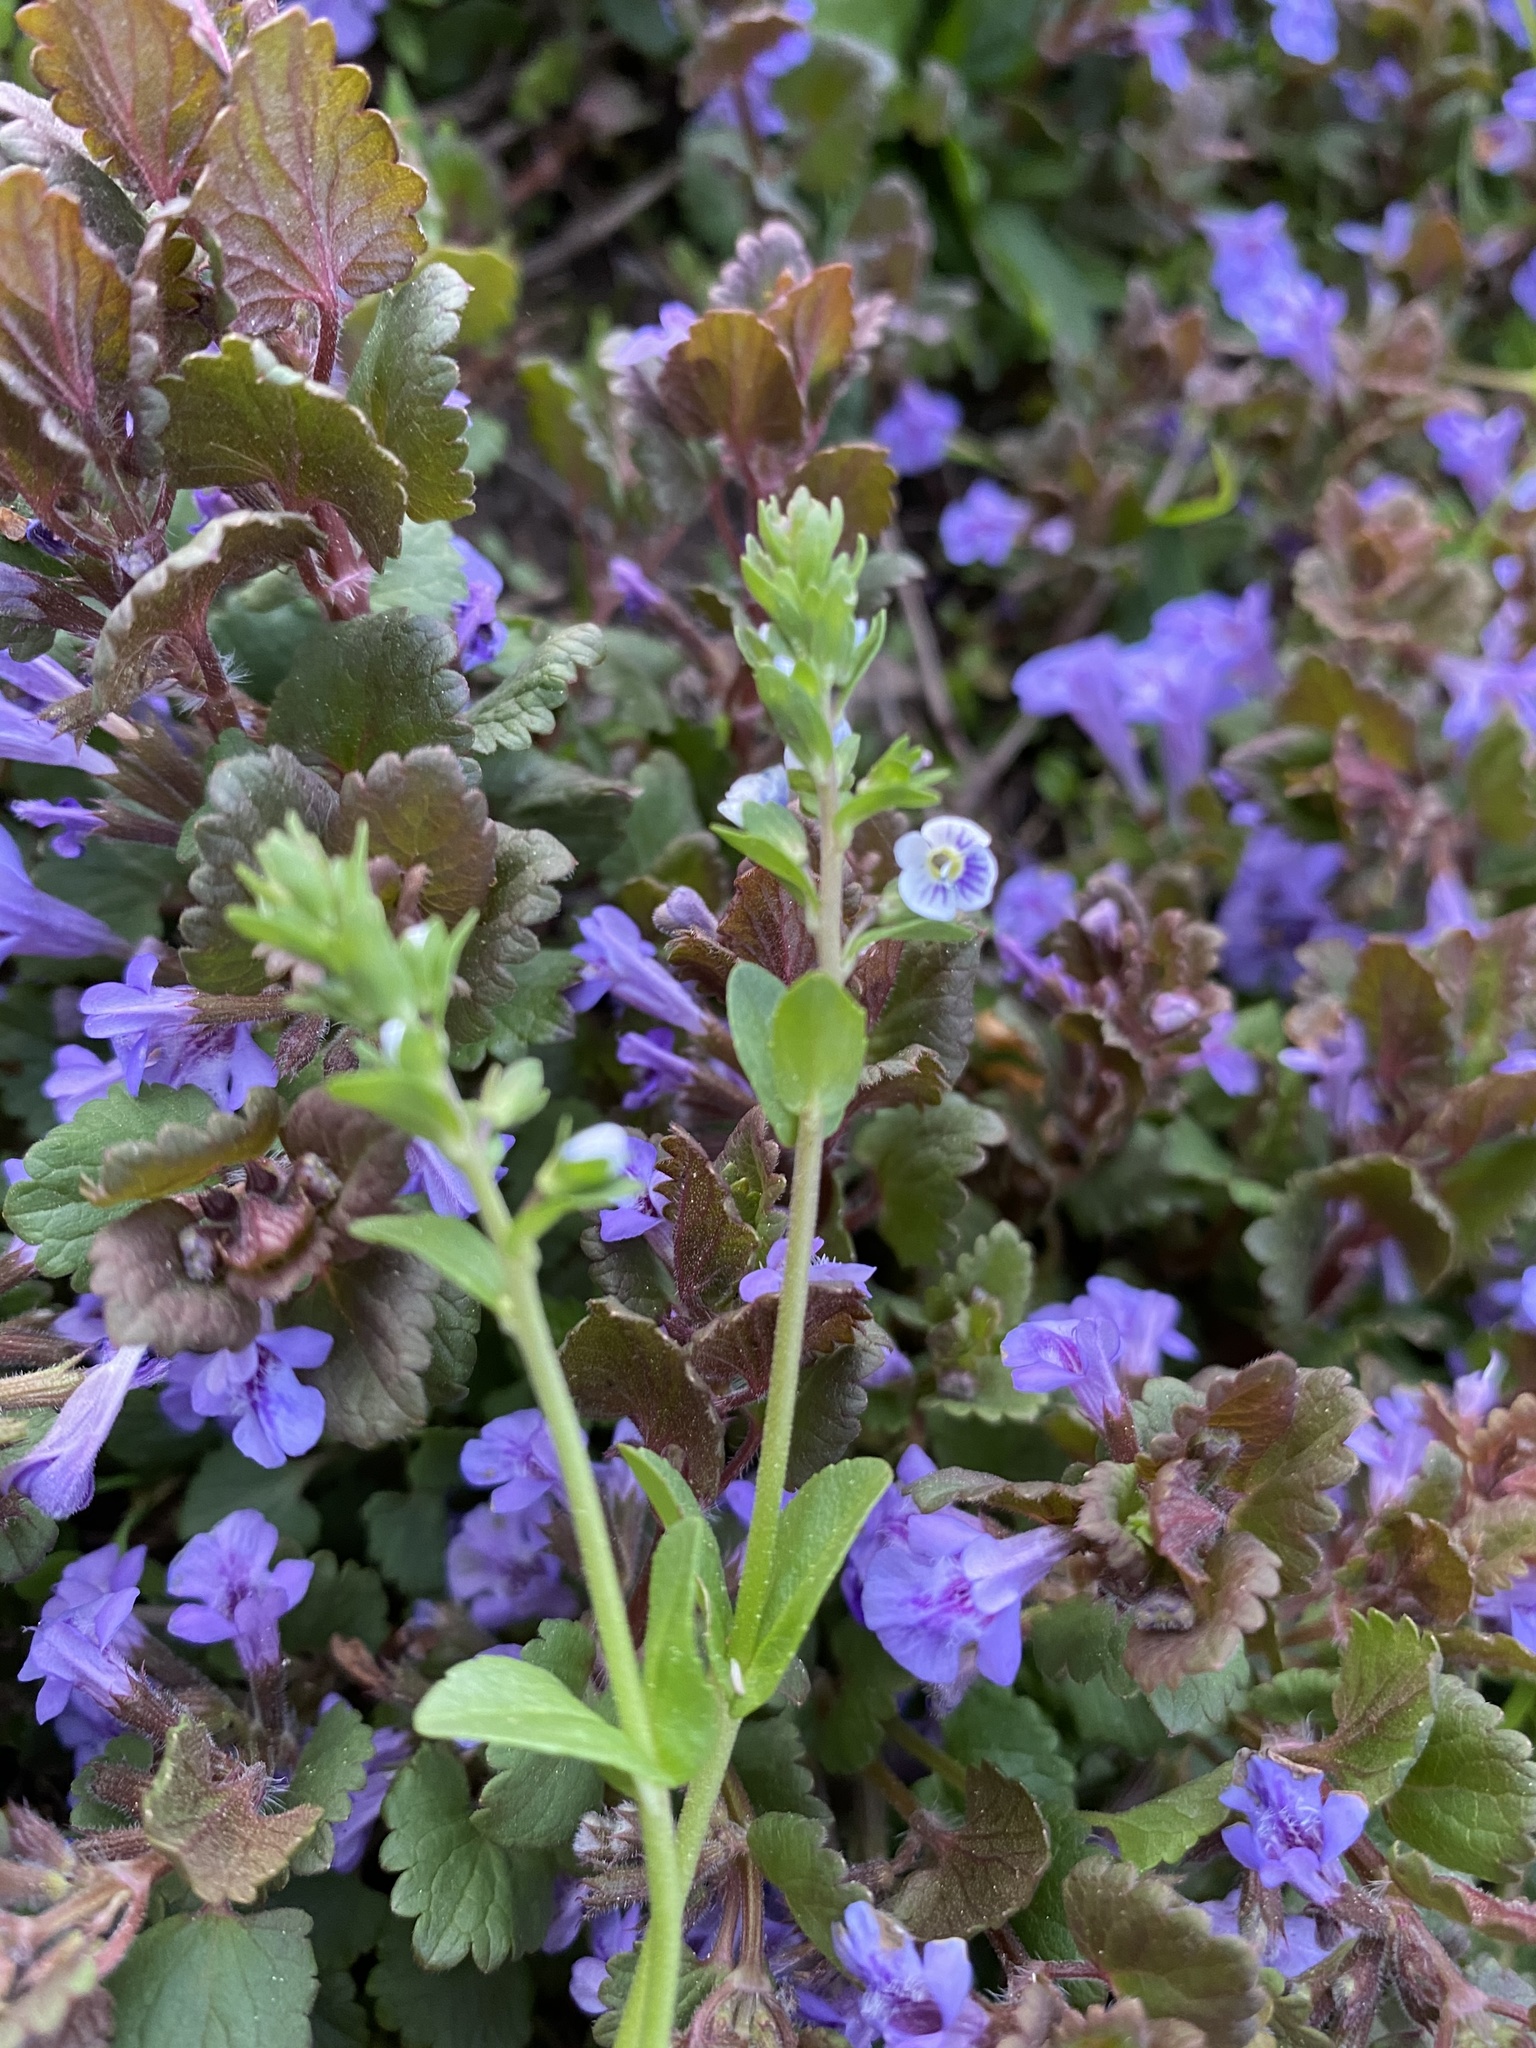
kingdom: Plantae
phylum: Tracheophyta
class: Magnoliopsida
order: Lamiales
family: Plantaginaceae
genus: Veronica
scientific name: Veronica serpyllifolia
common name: Thyme-leaved speedwell
